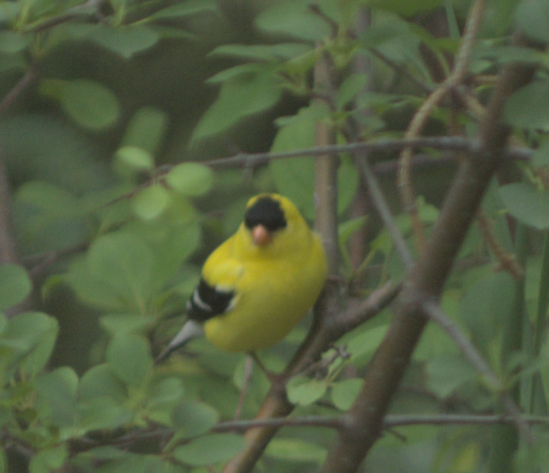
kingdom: Animalia
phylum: Chordata
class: Aves
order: Passeriformes
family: Fringillidae
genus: Spinus
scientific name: Spinus tristis
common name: American goldfinch
